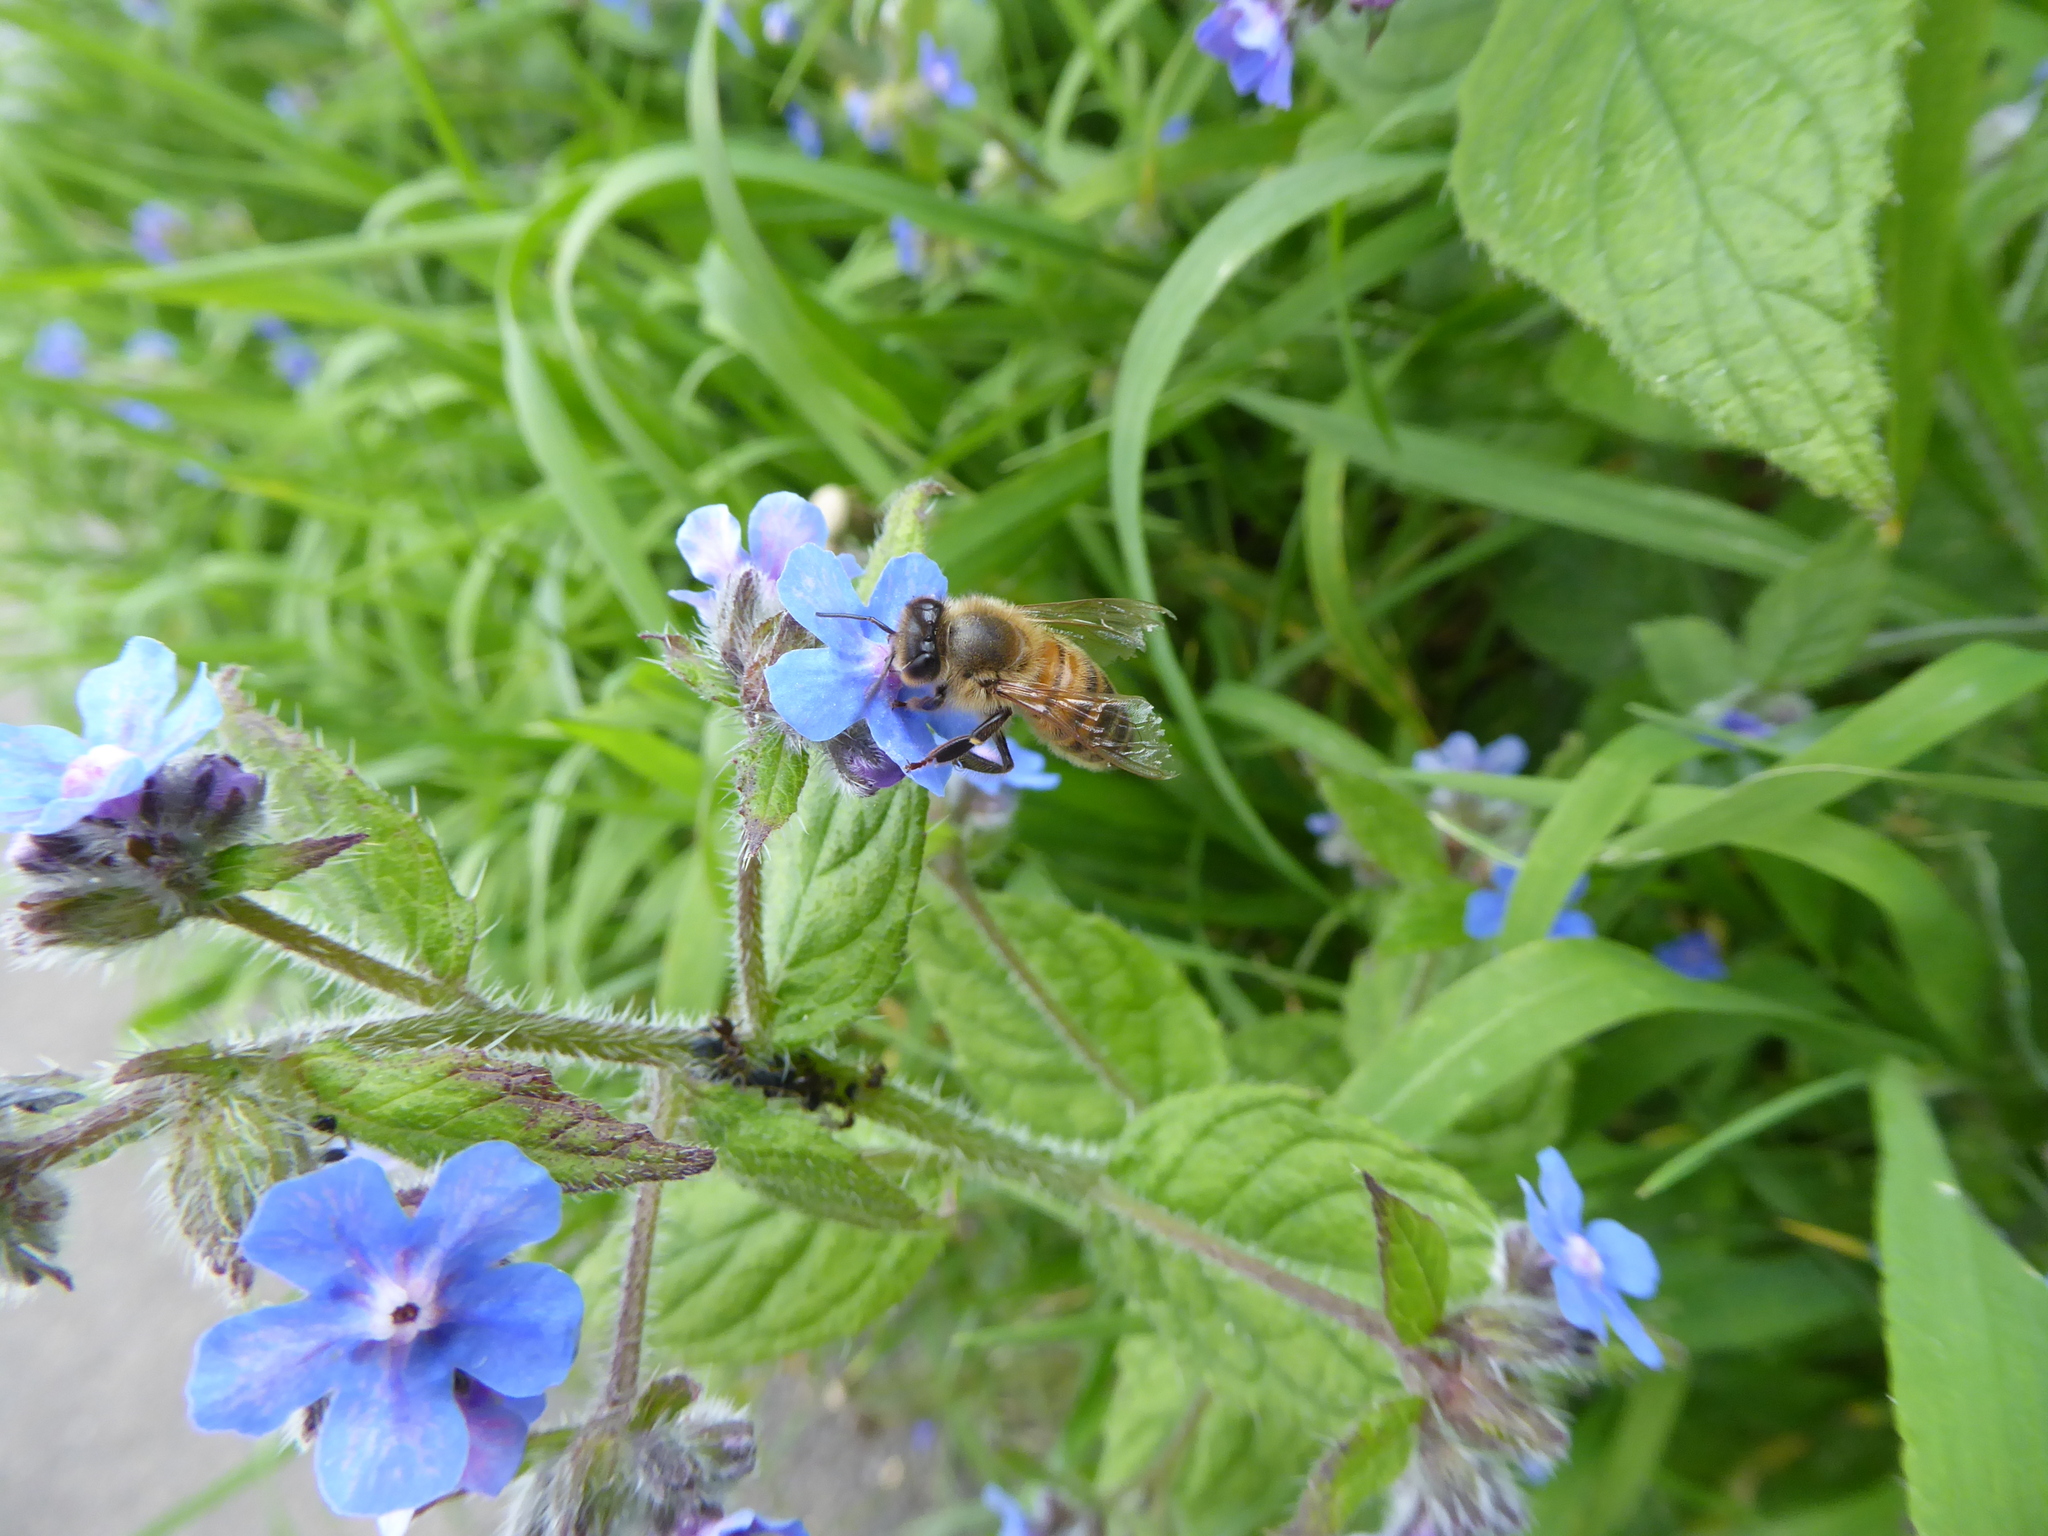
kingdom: Animalia
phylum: Arthropoda
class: Insecta
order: Hymenoptera
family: Apidae
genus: Apis
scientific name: Apis mellifera
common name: Honey bee
